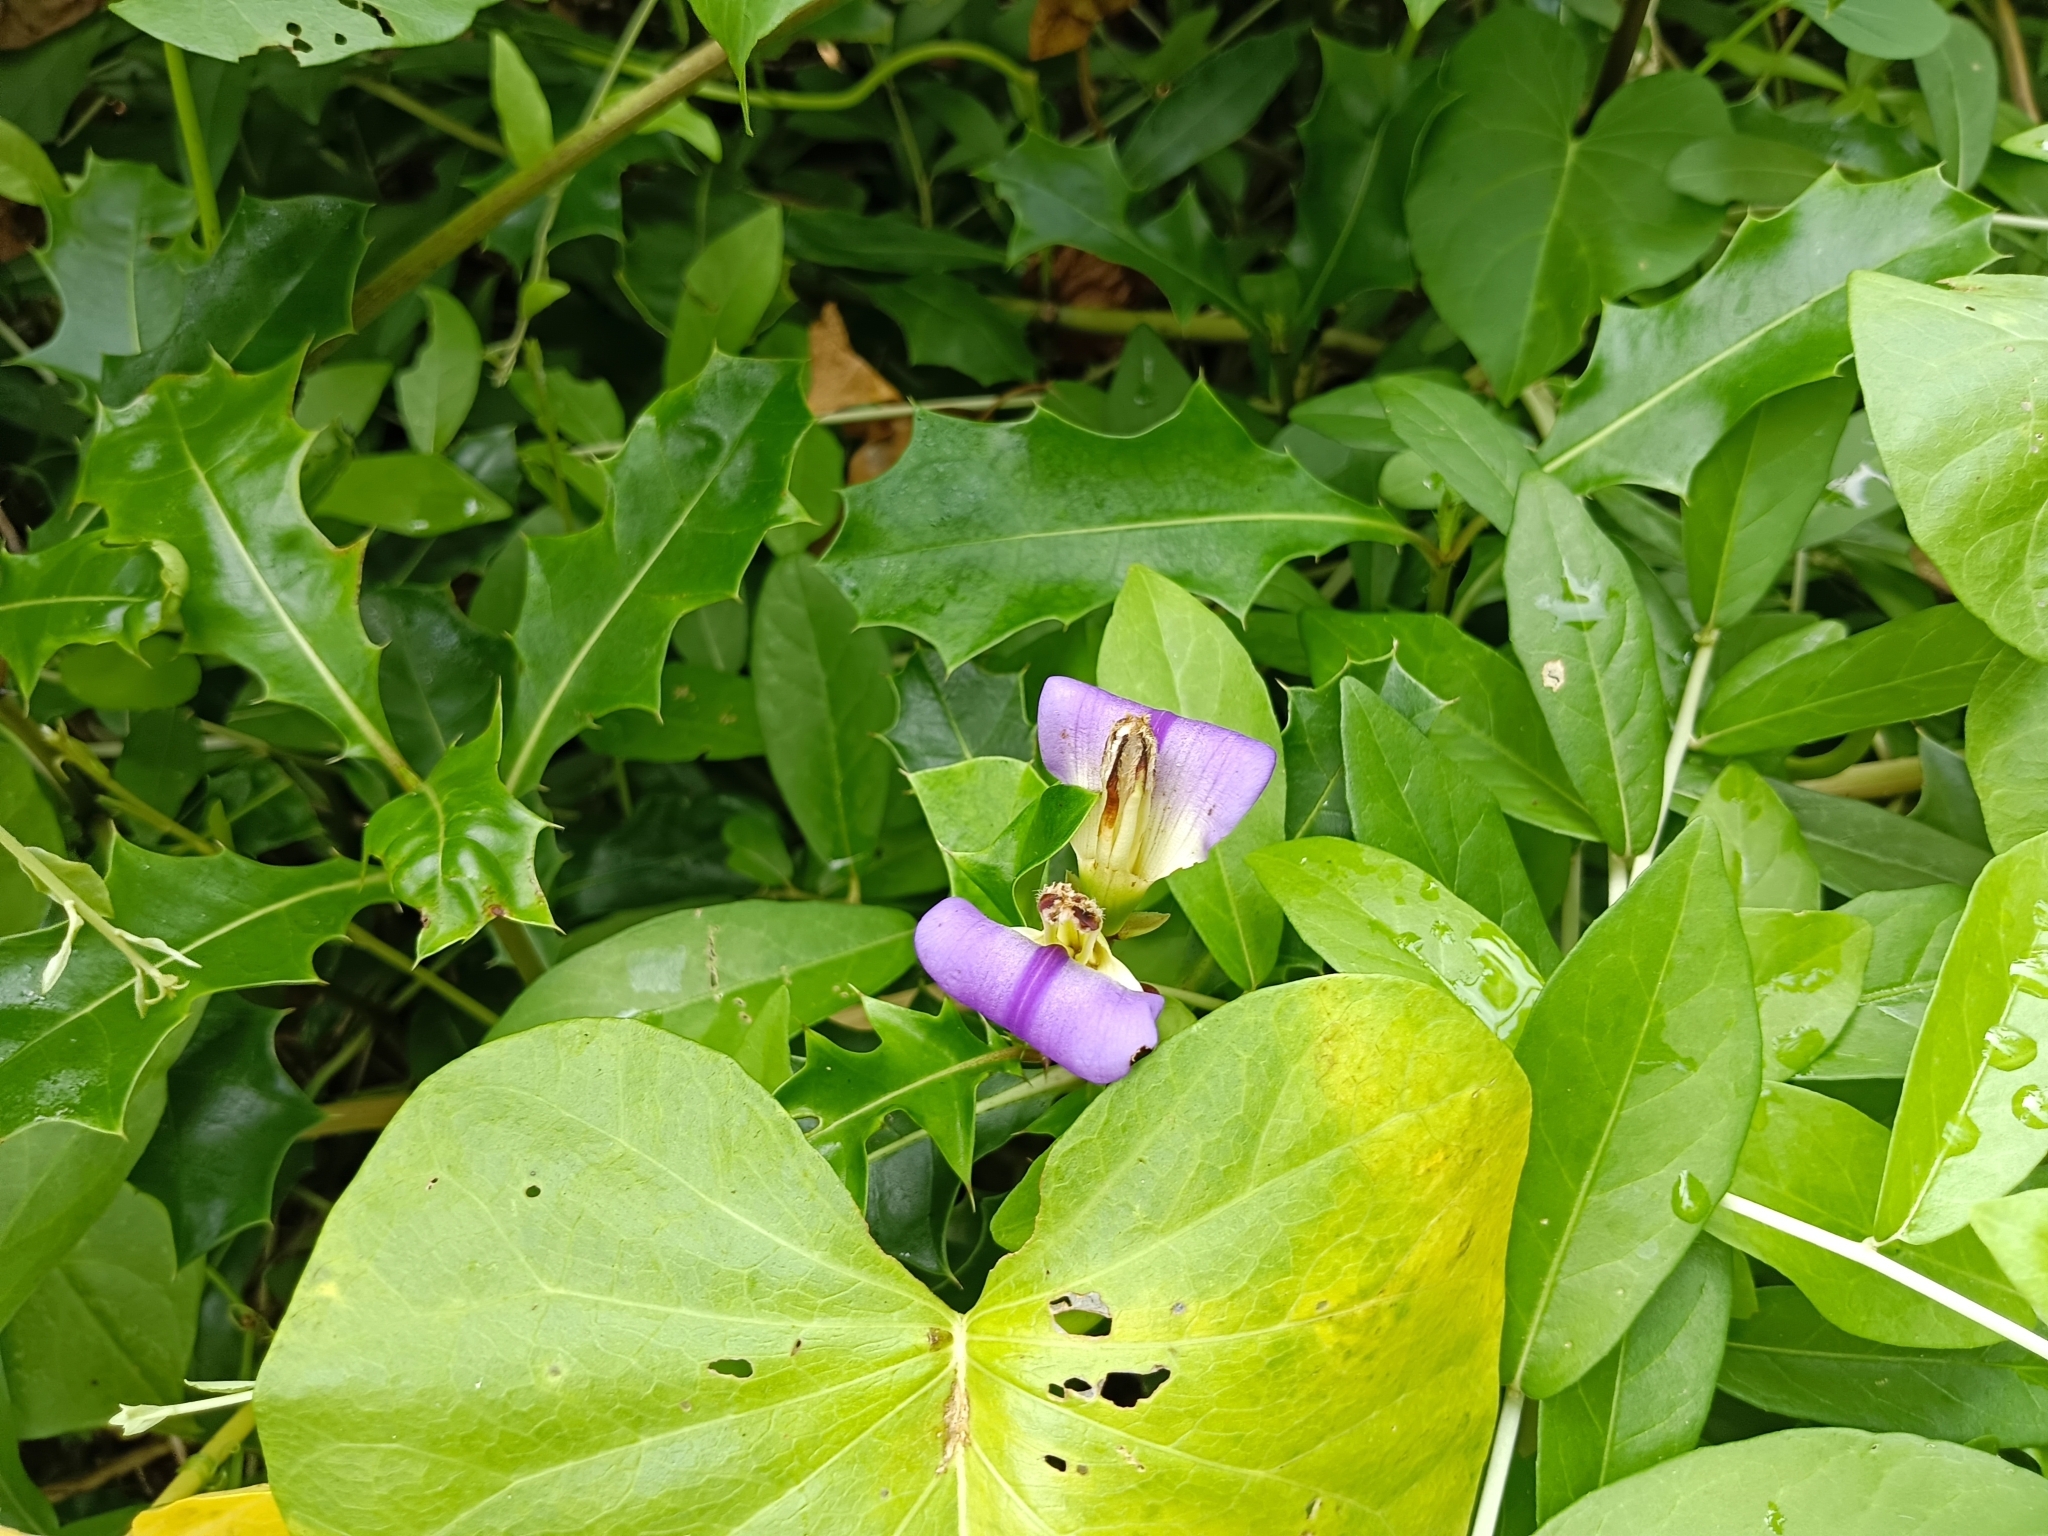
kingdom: Plantae
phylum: Tracheophyta
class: Magnoliopsida
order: Lamiales
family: Acanthaceae
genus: Acanthus
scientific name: Acanthus ilicifolius
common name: Holy mangrove
